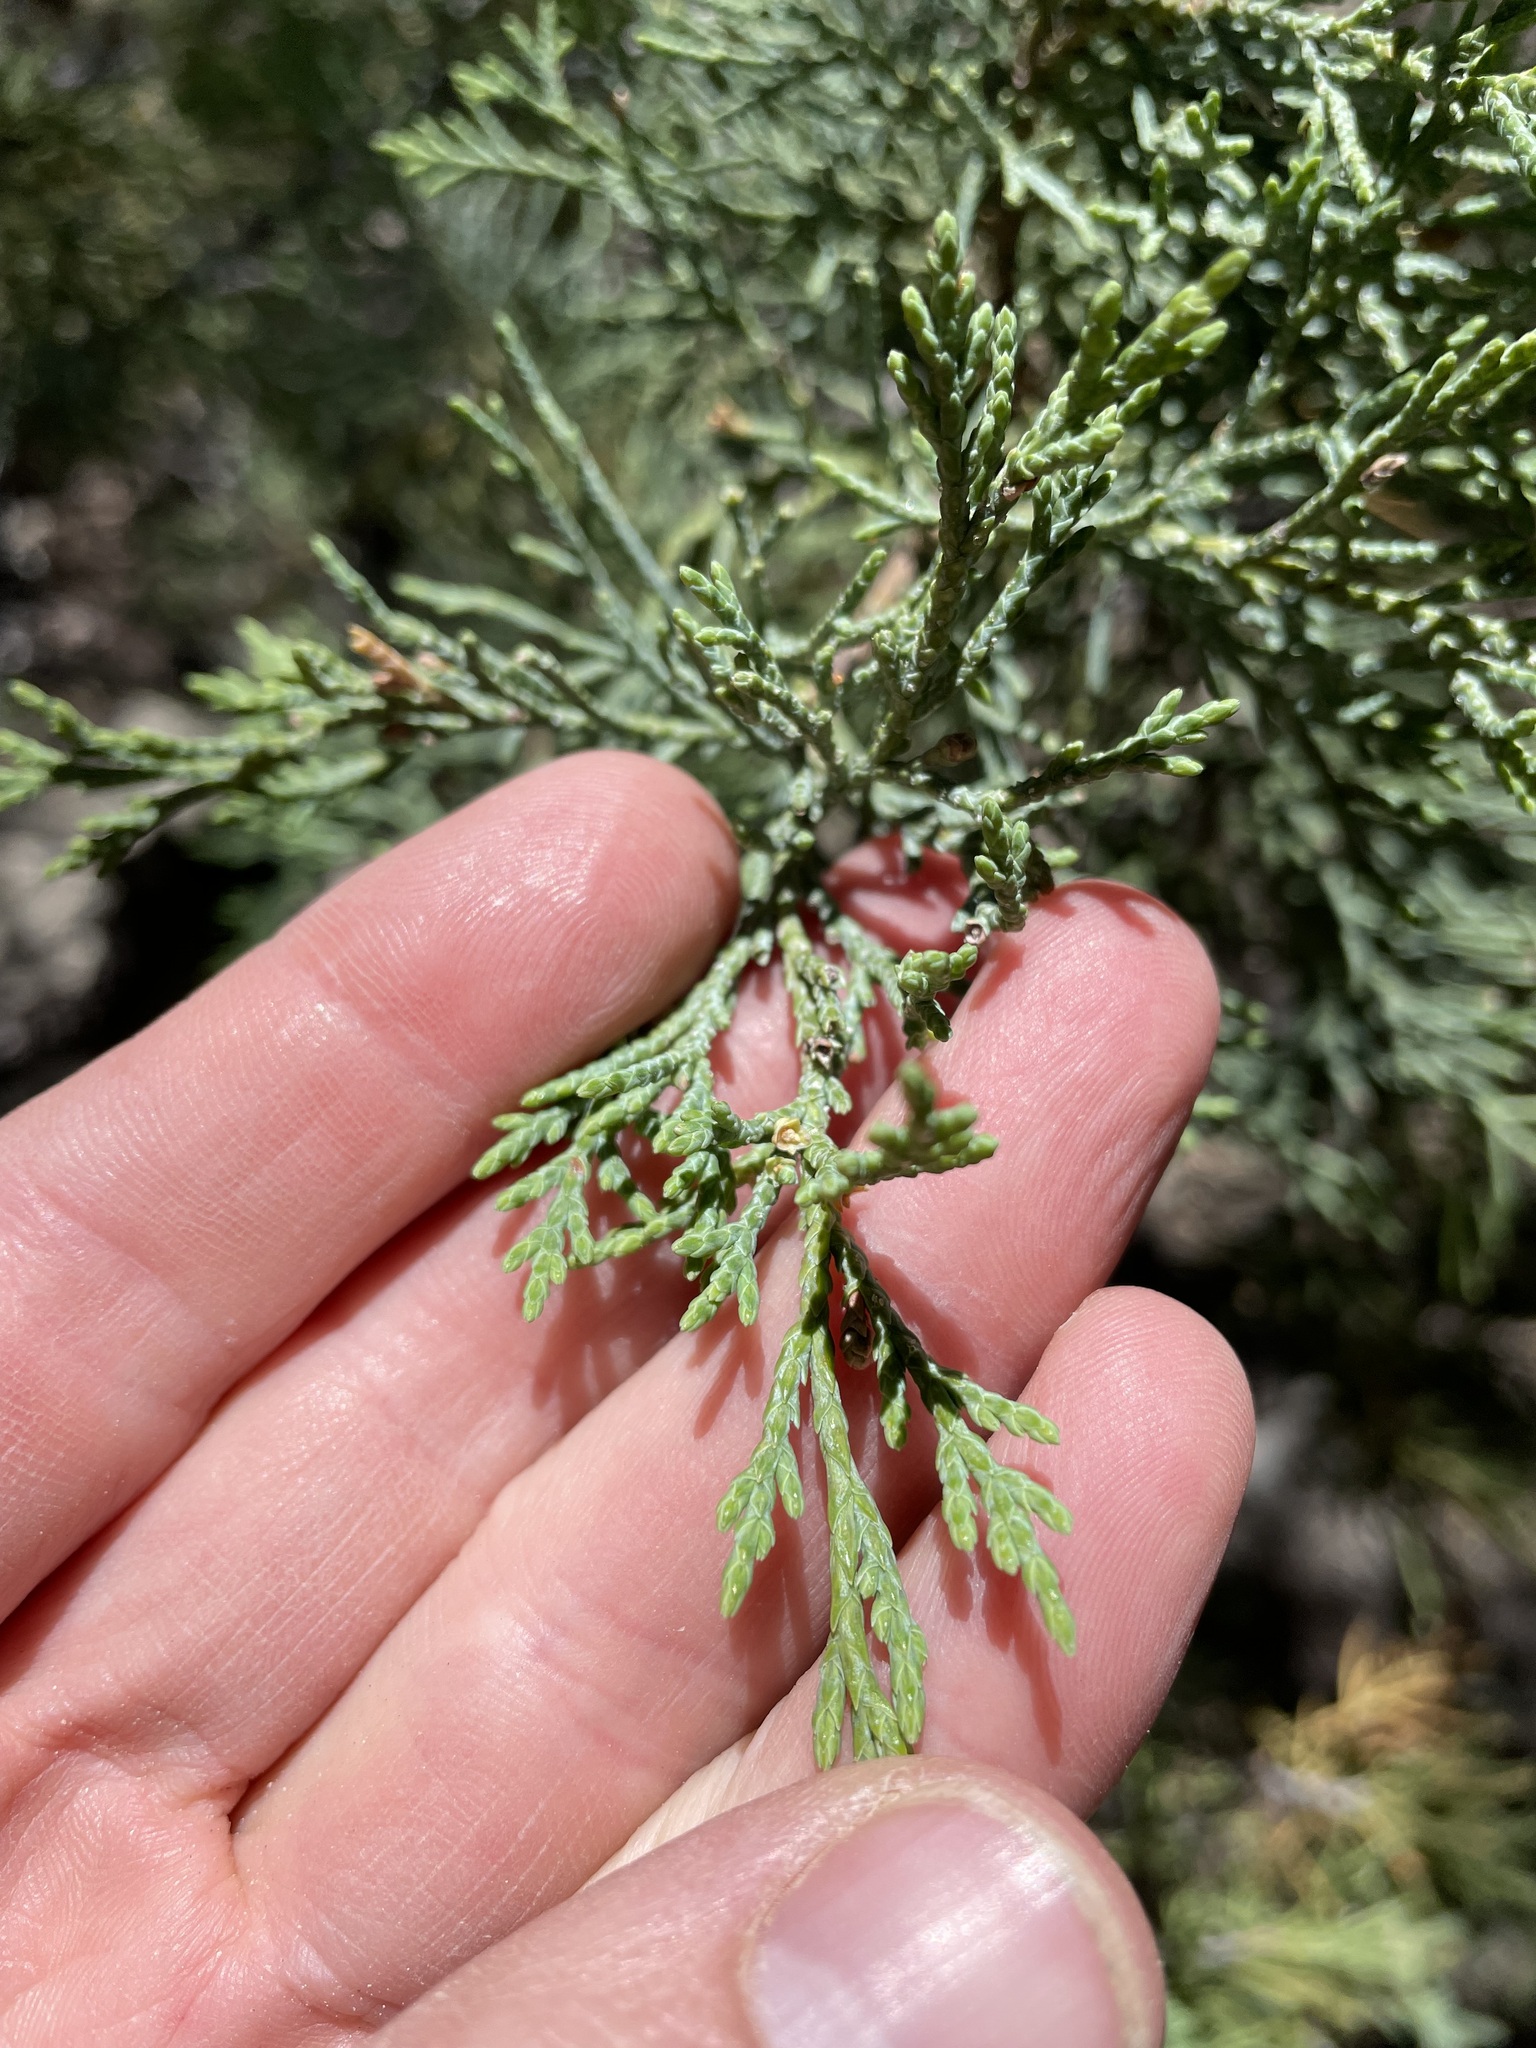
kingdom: Plantae
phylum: Tracheophyta
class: Pinopsida
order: Pinales
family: Cupressaceae
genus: Juniperus
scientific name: Juniperus deppeana
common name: Alligator juniper
